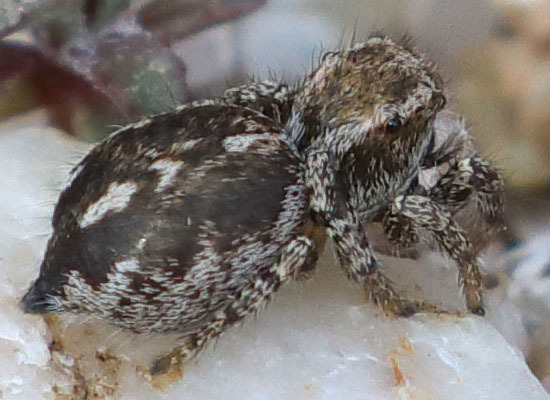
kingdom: Animalia
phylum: Arthropoda
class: Arachnida
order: Araneae
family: Salticidae
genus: Habronattus
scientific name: Habronattus peckhami
